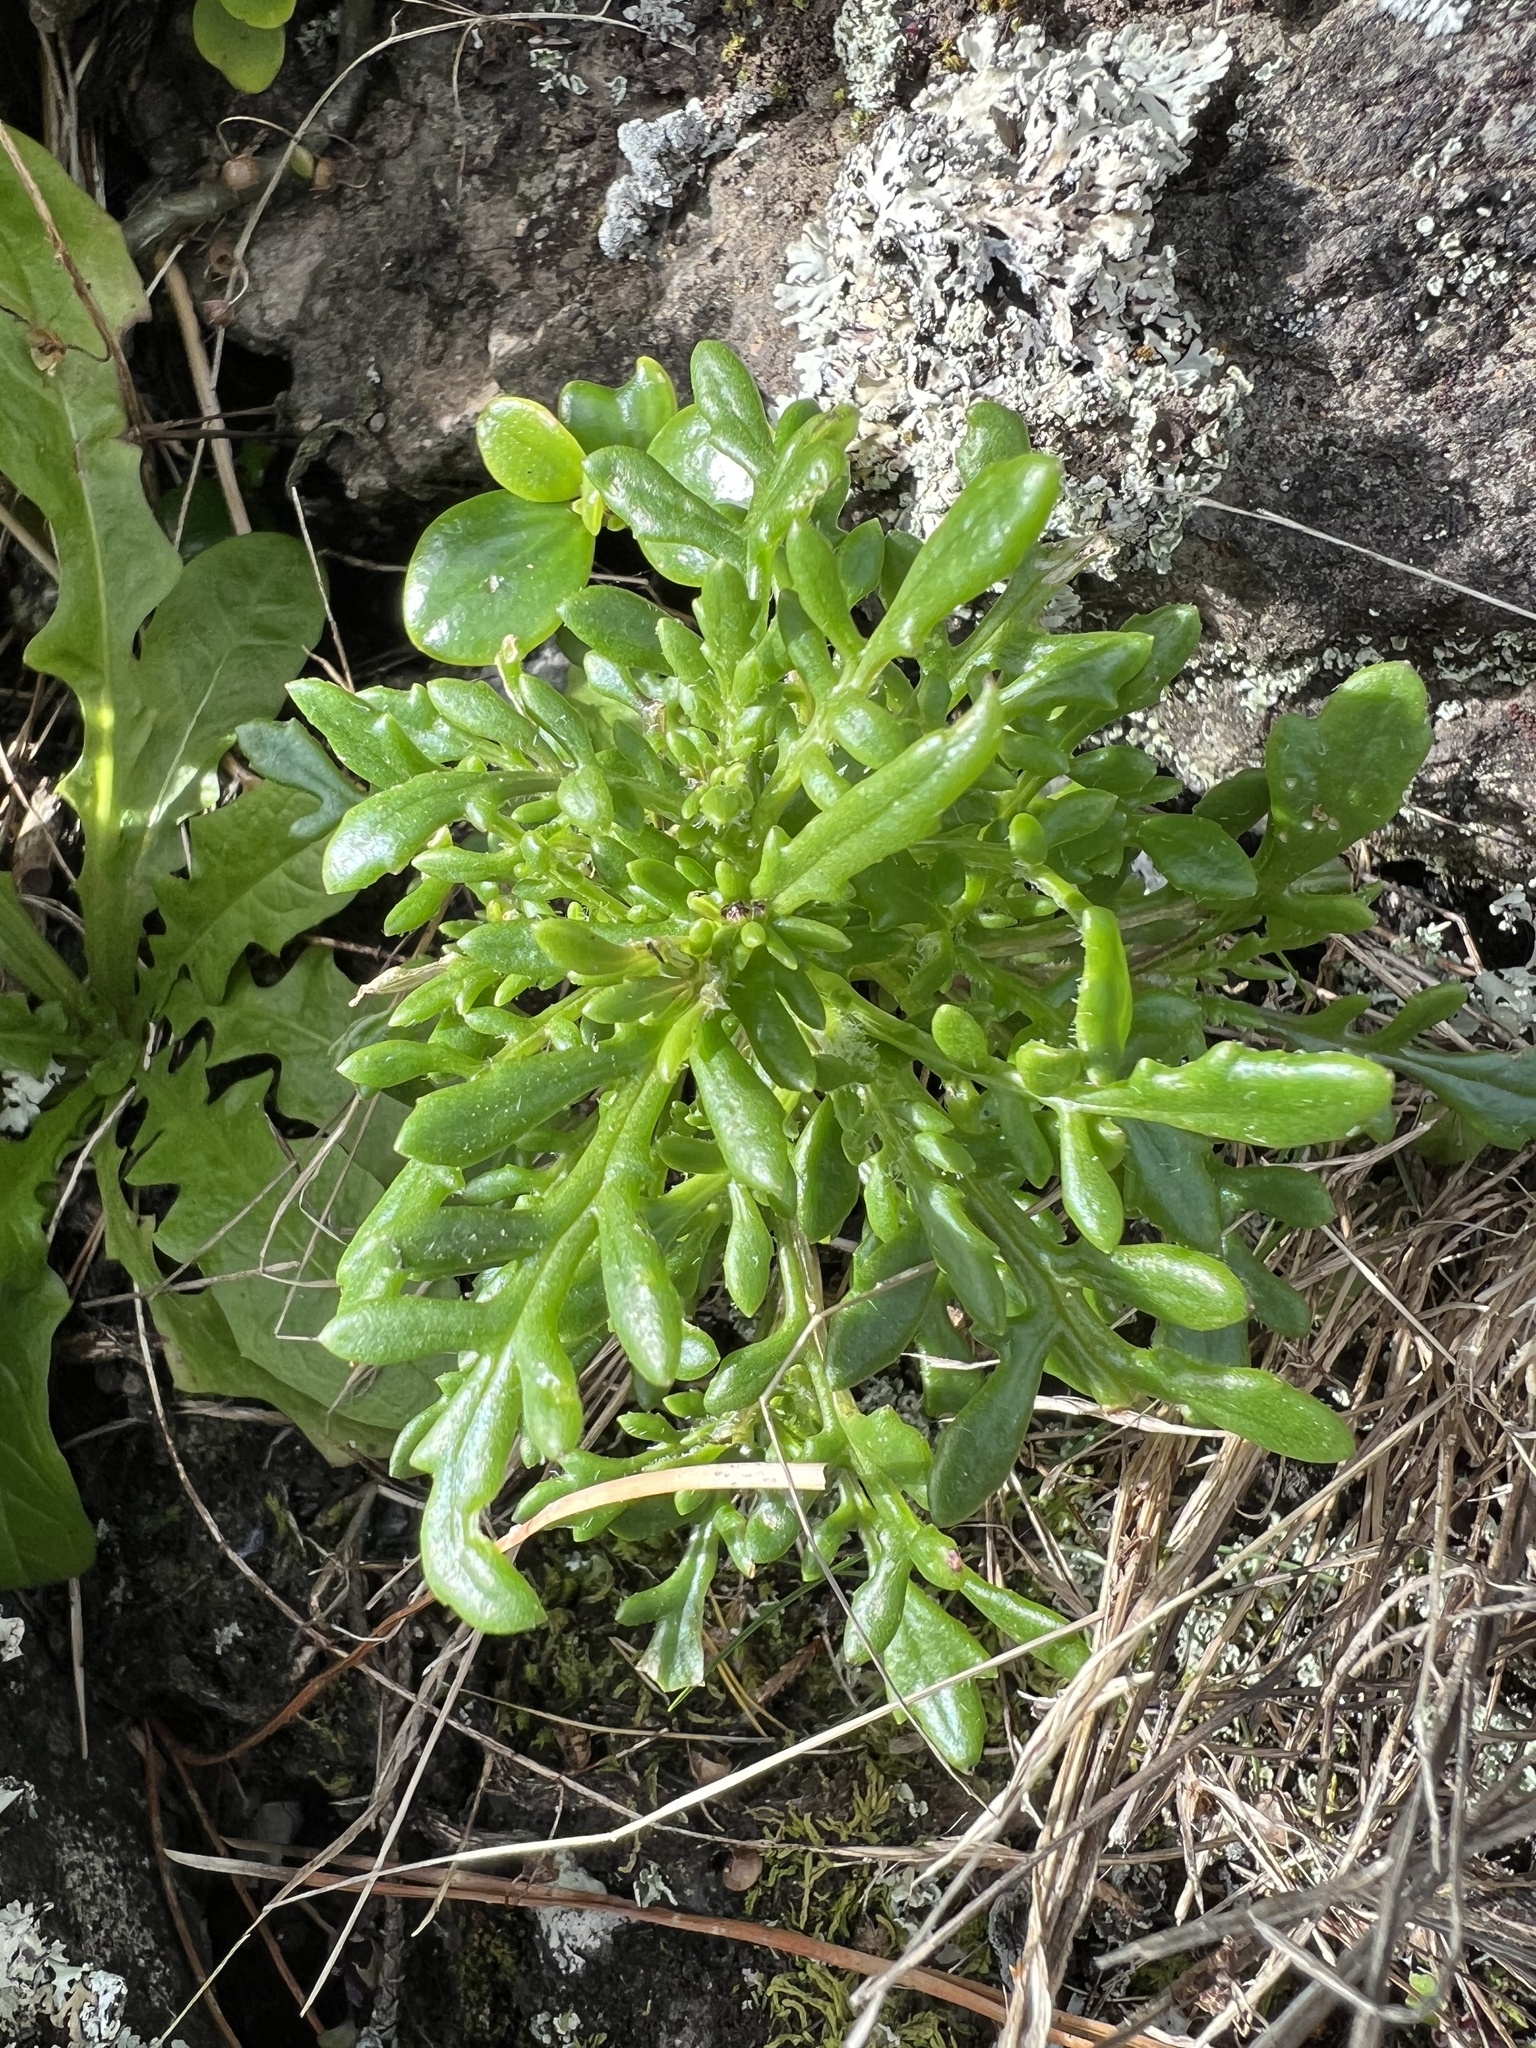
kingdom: Plantae
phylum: Tracheophyta
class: Magnoliopsida
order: Asterales
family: Asteraceae
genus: Senecio
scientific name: Senecio lautus
